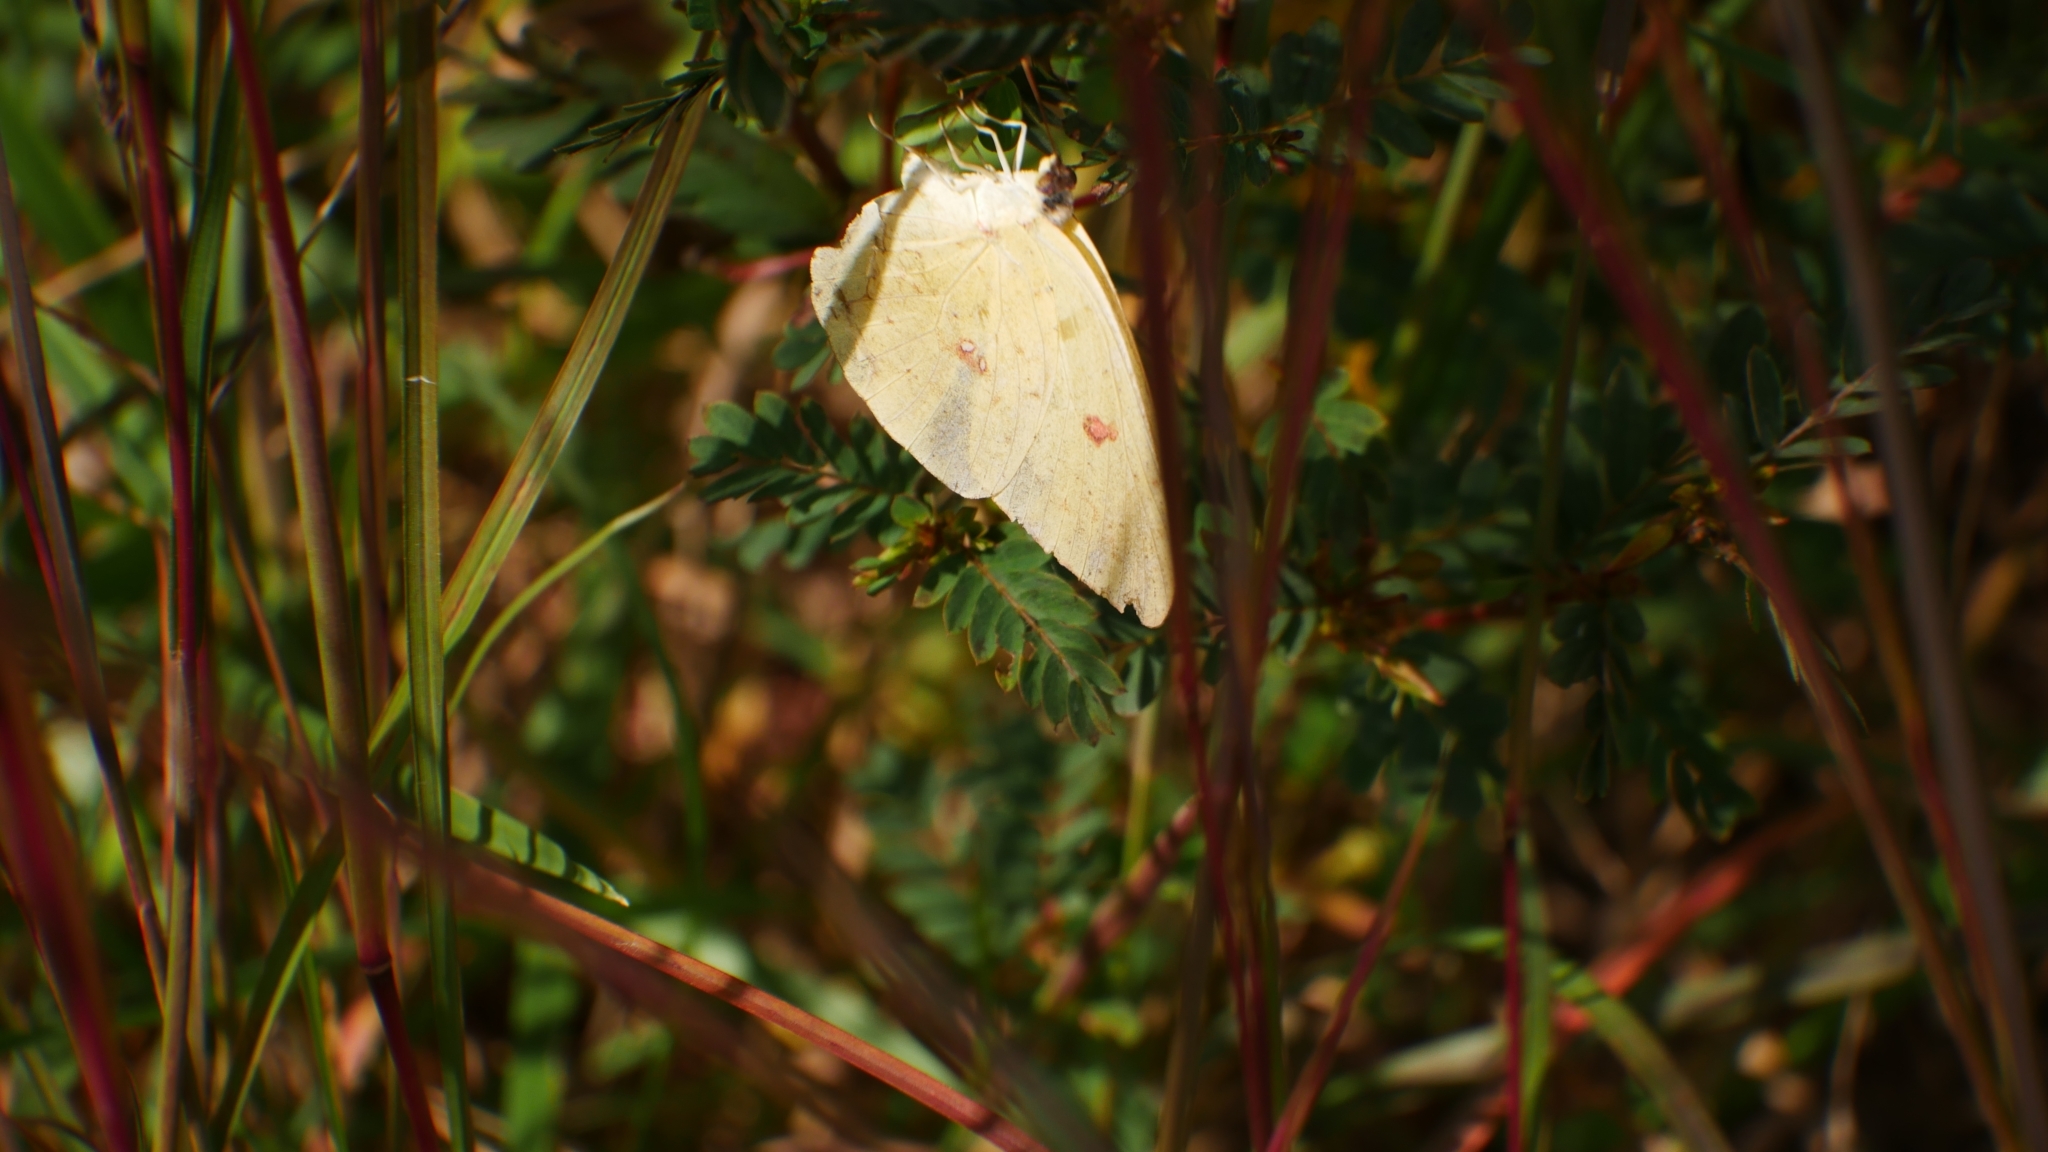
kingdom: Animalia
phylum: Arthropoda
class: Insecta
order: Lepidoptera
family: Pieridae
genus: Phoebis
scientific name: Phoebis sennae
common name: Cloudless sulphur
